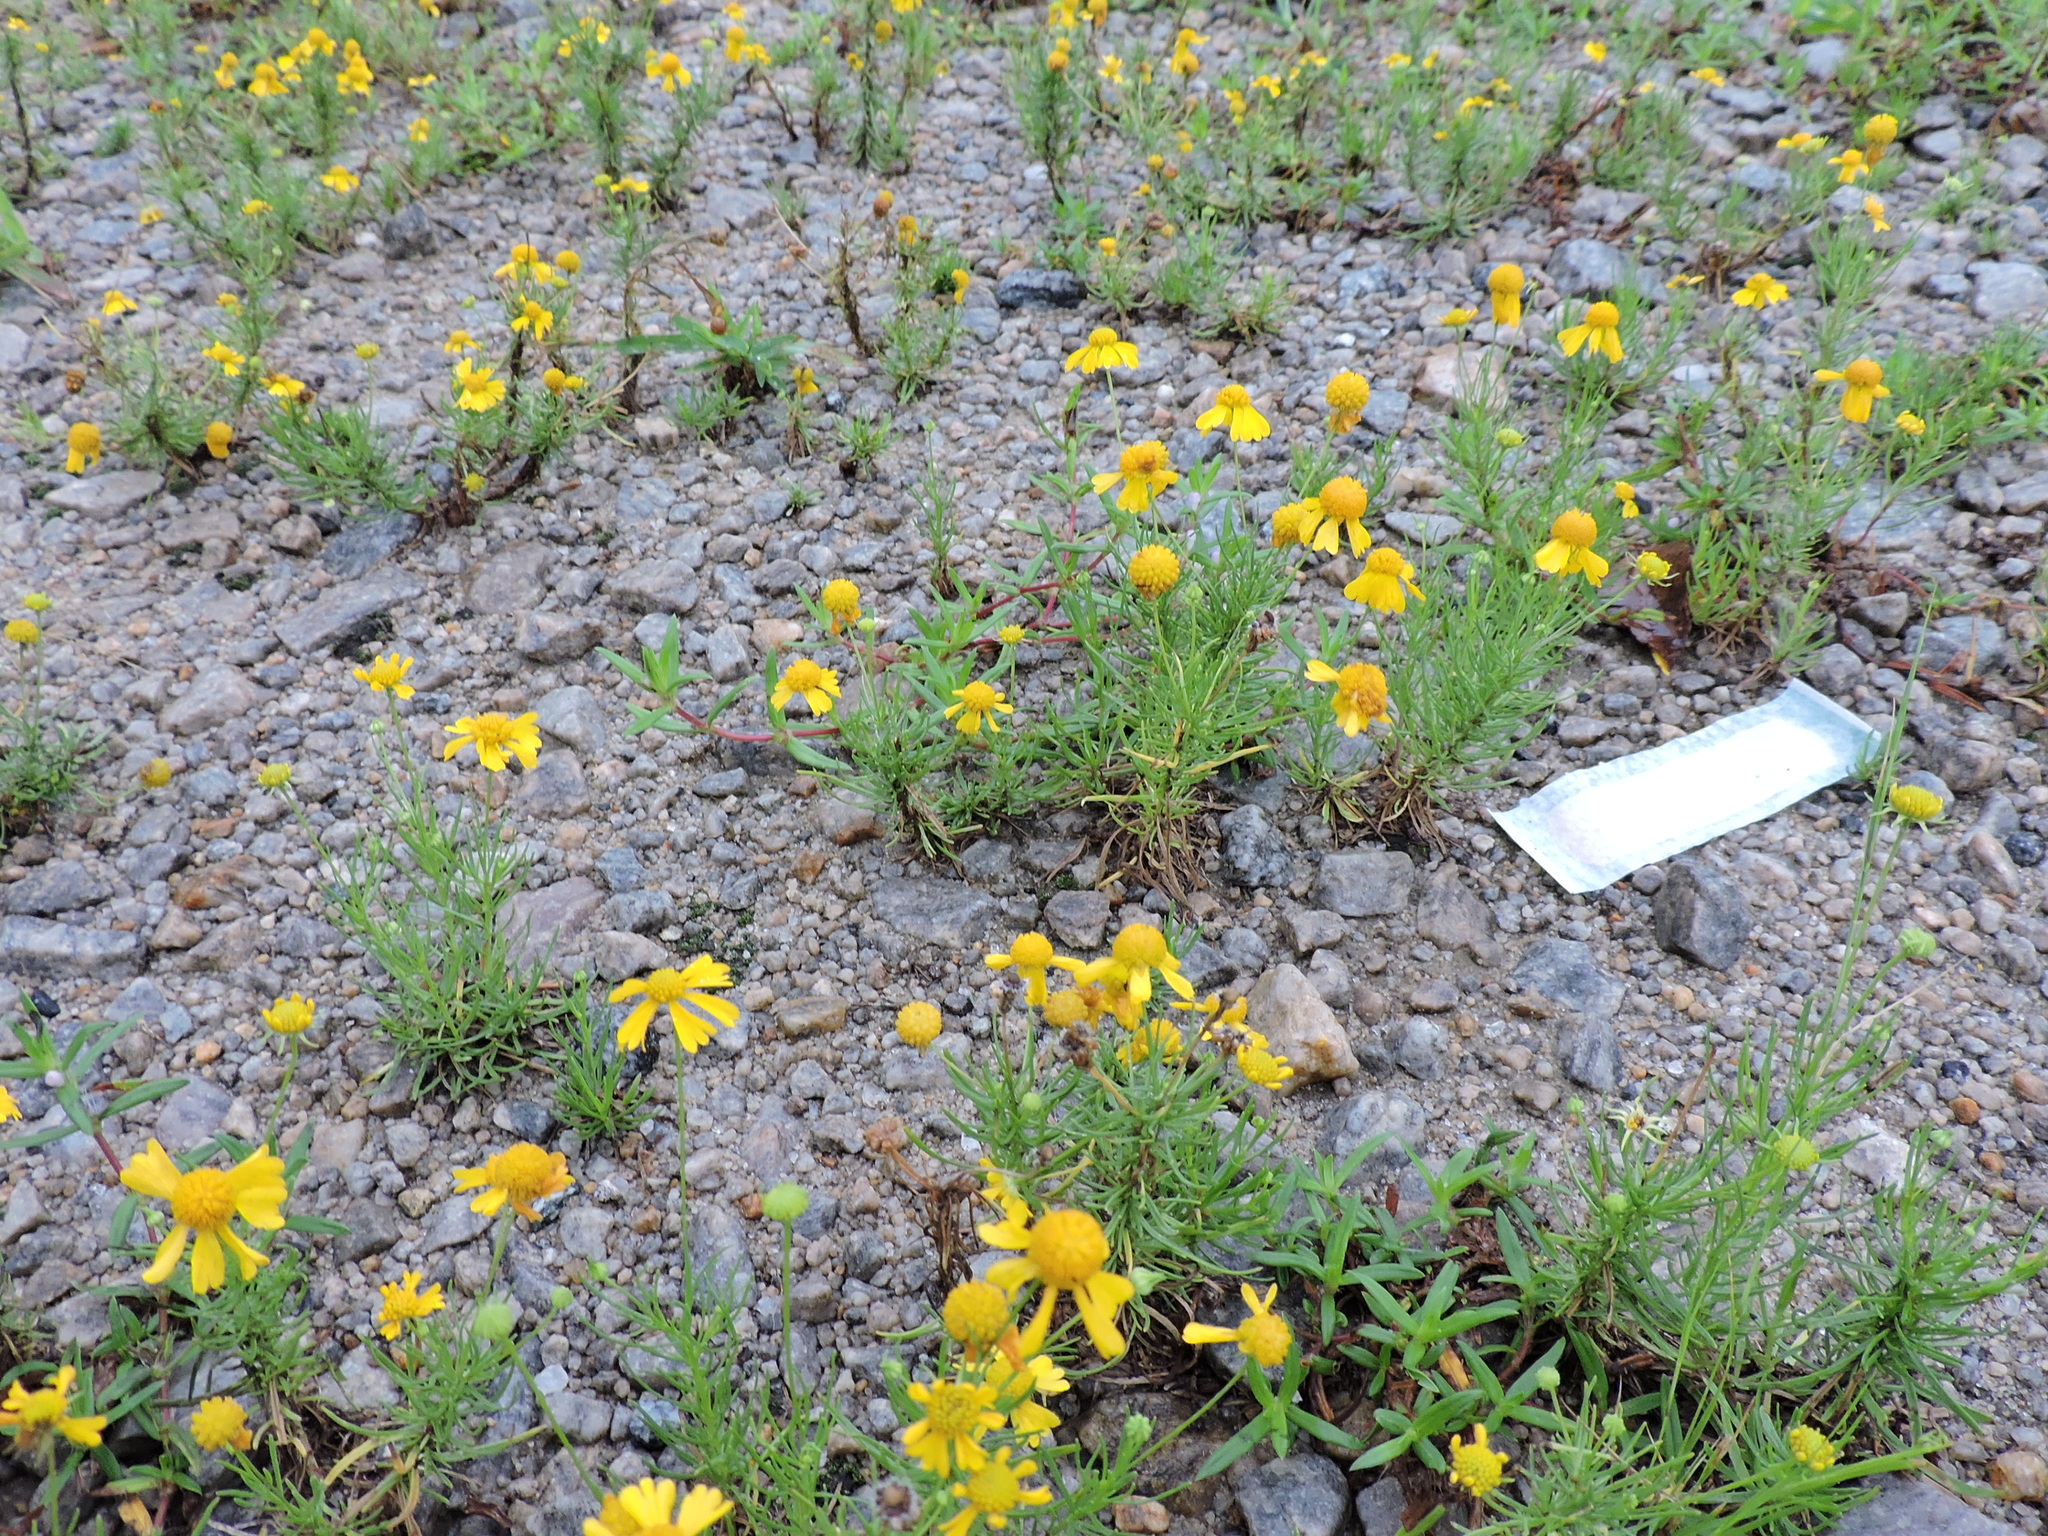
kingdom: Plantae
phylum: Tracheophyta
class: Magnoliopsida
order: Asterales
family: Asteraceae
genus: Helenium
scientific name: Helenium amarum
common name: Bitter sneezeweed
